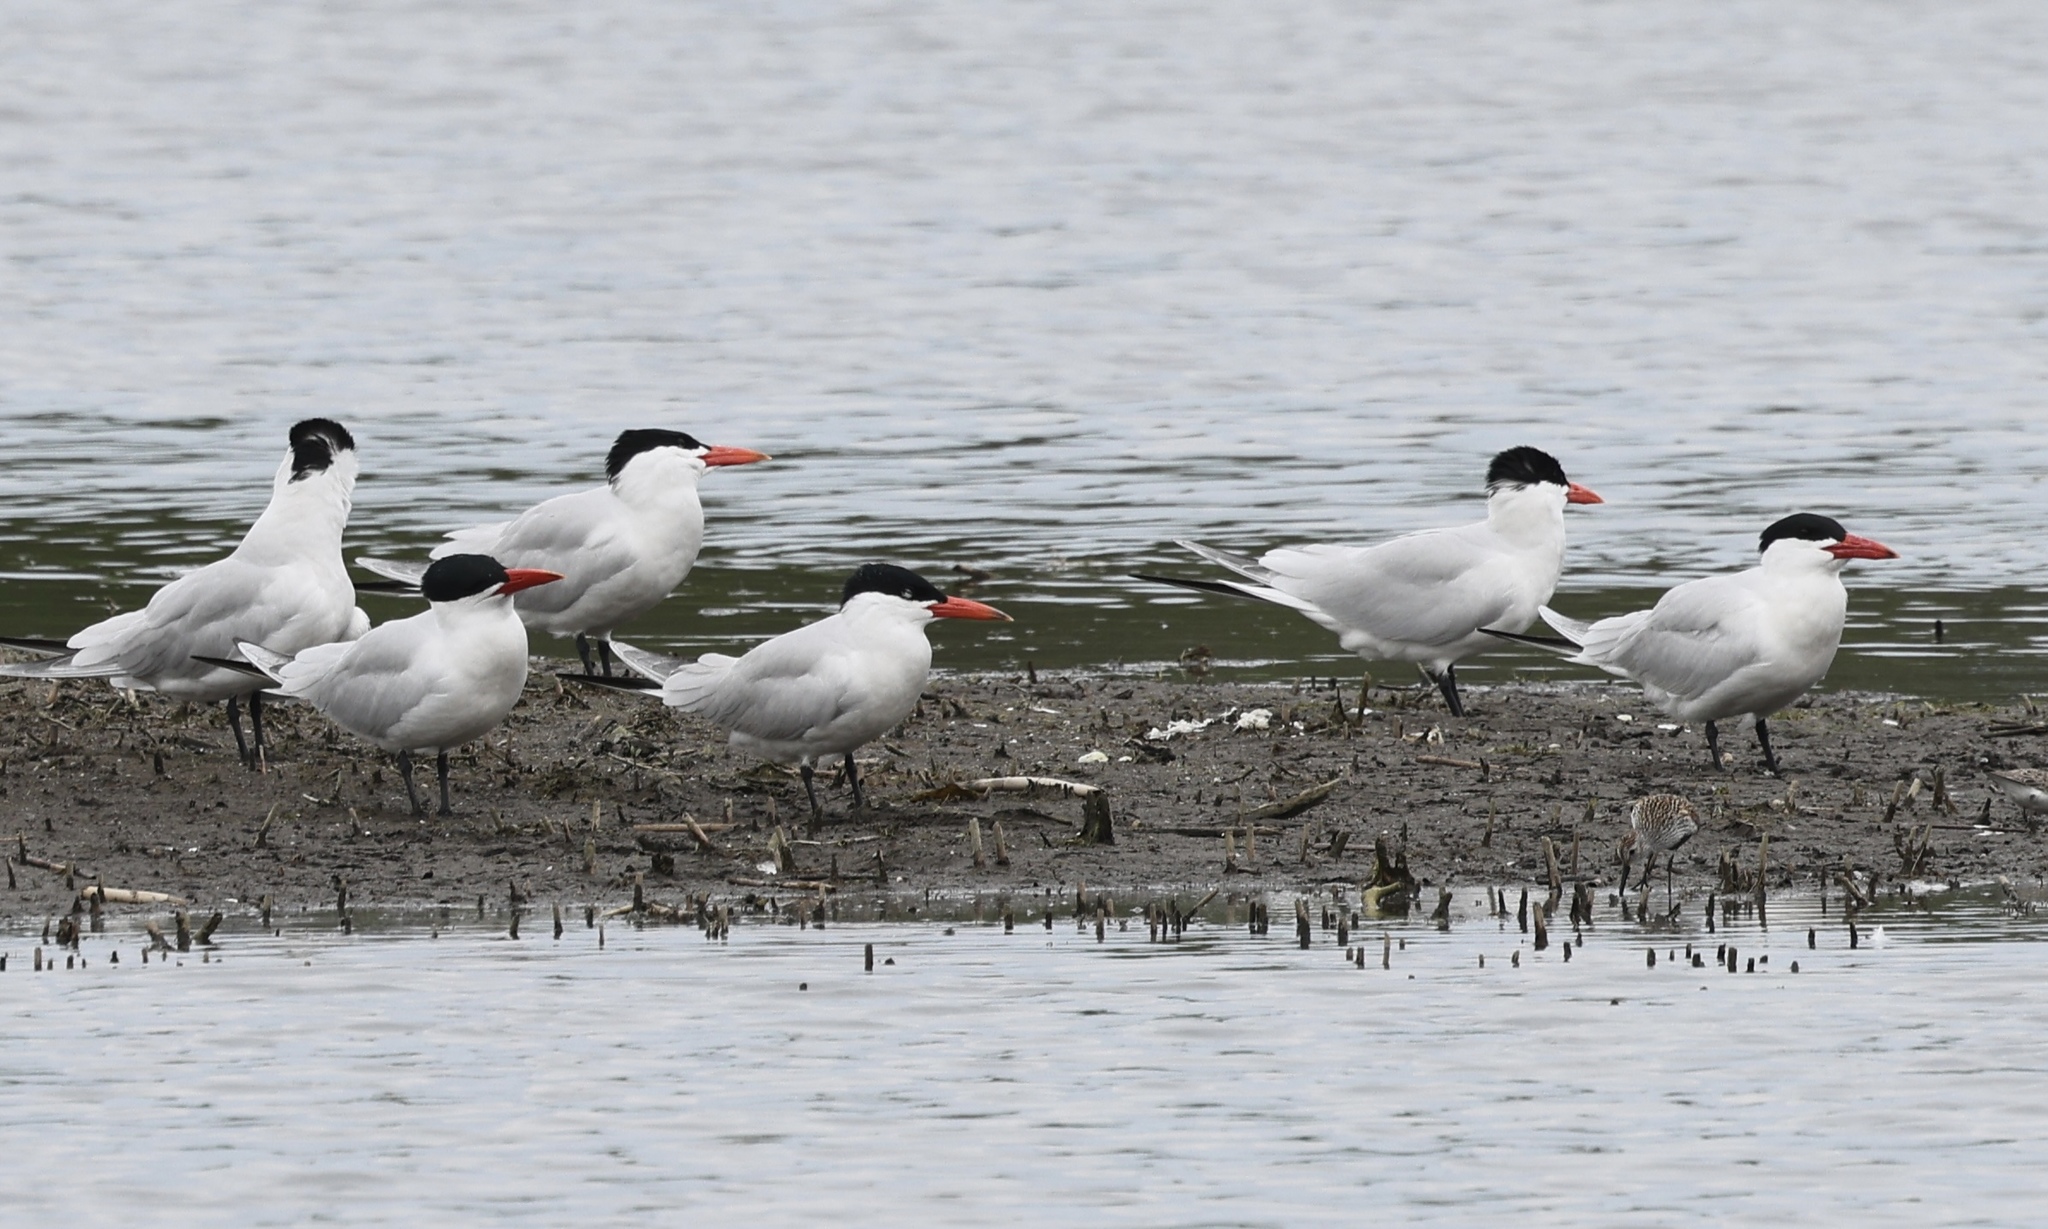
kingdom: Animalia
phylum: Chordata
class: Aves
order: Charadriiformes
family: Laridae
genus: Hydroprogne
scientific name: Hydroprogne caspia
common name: Caspian tern
